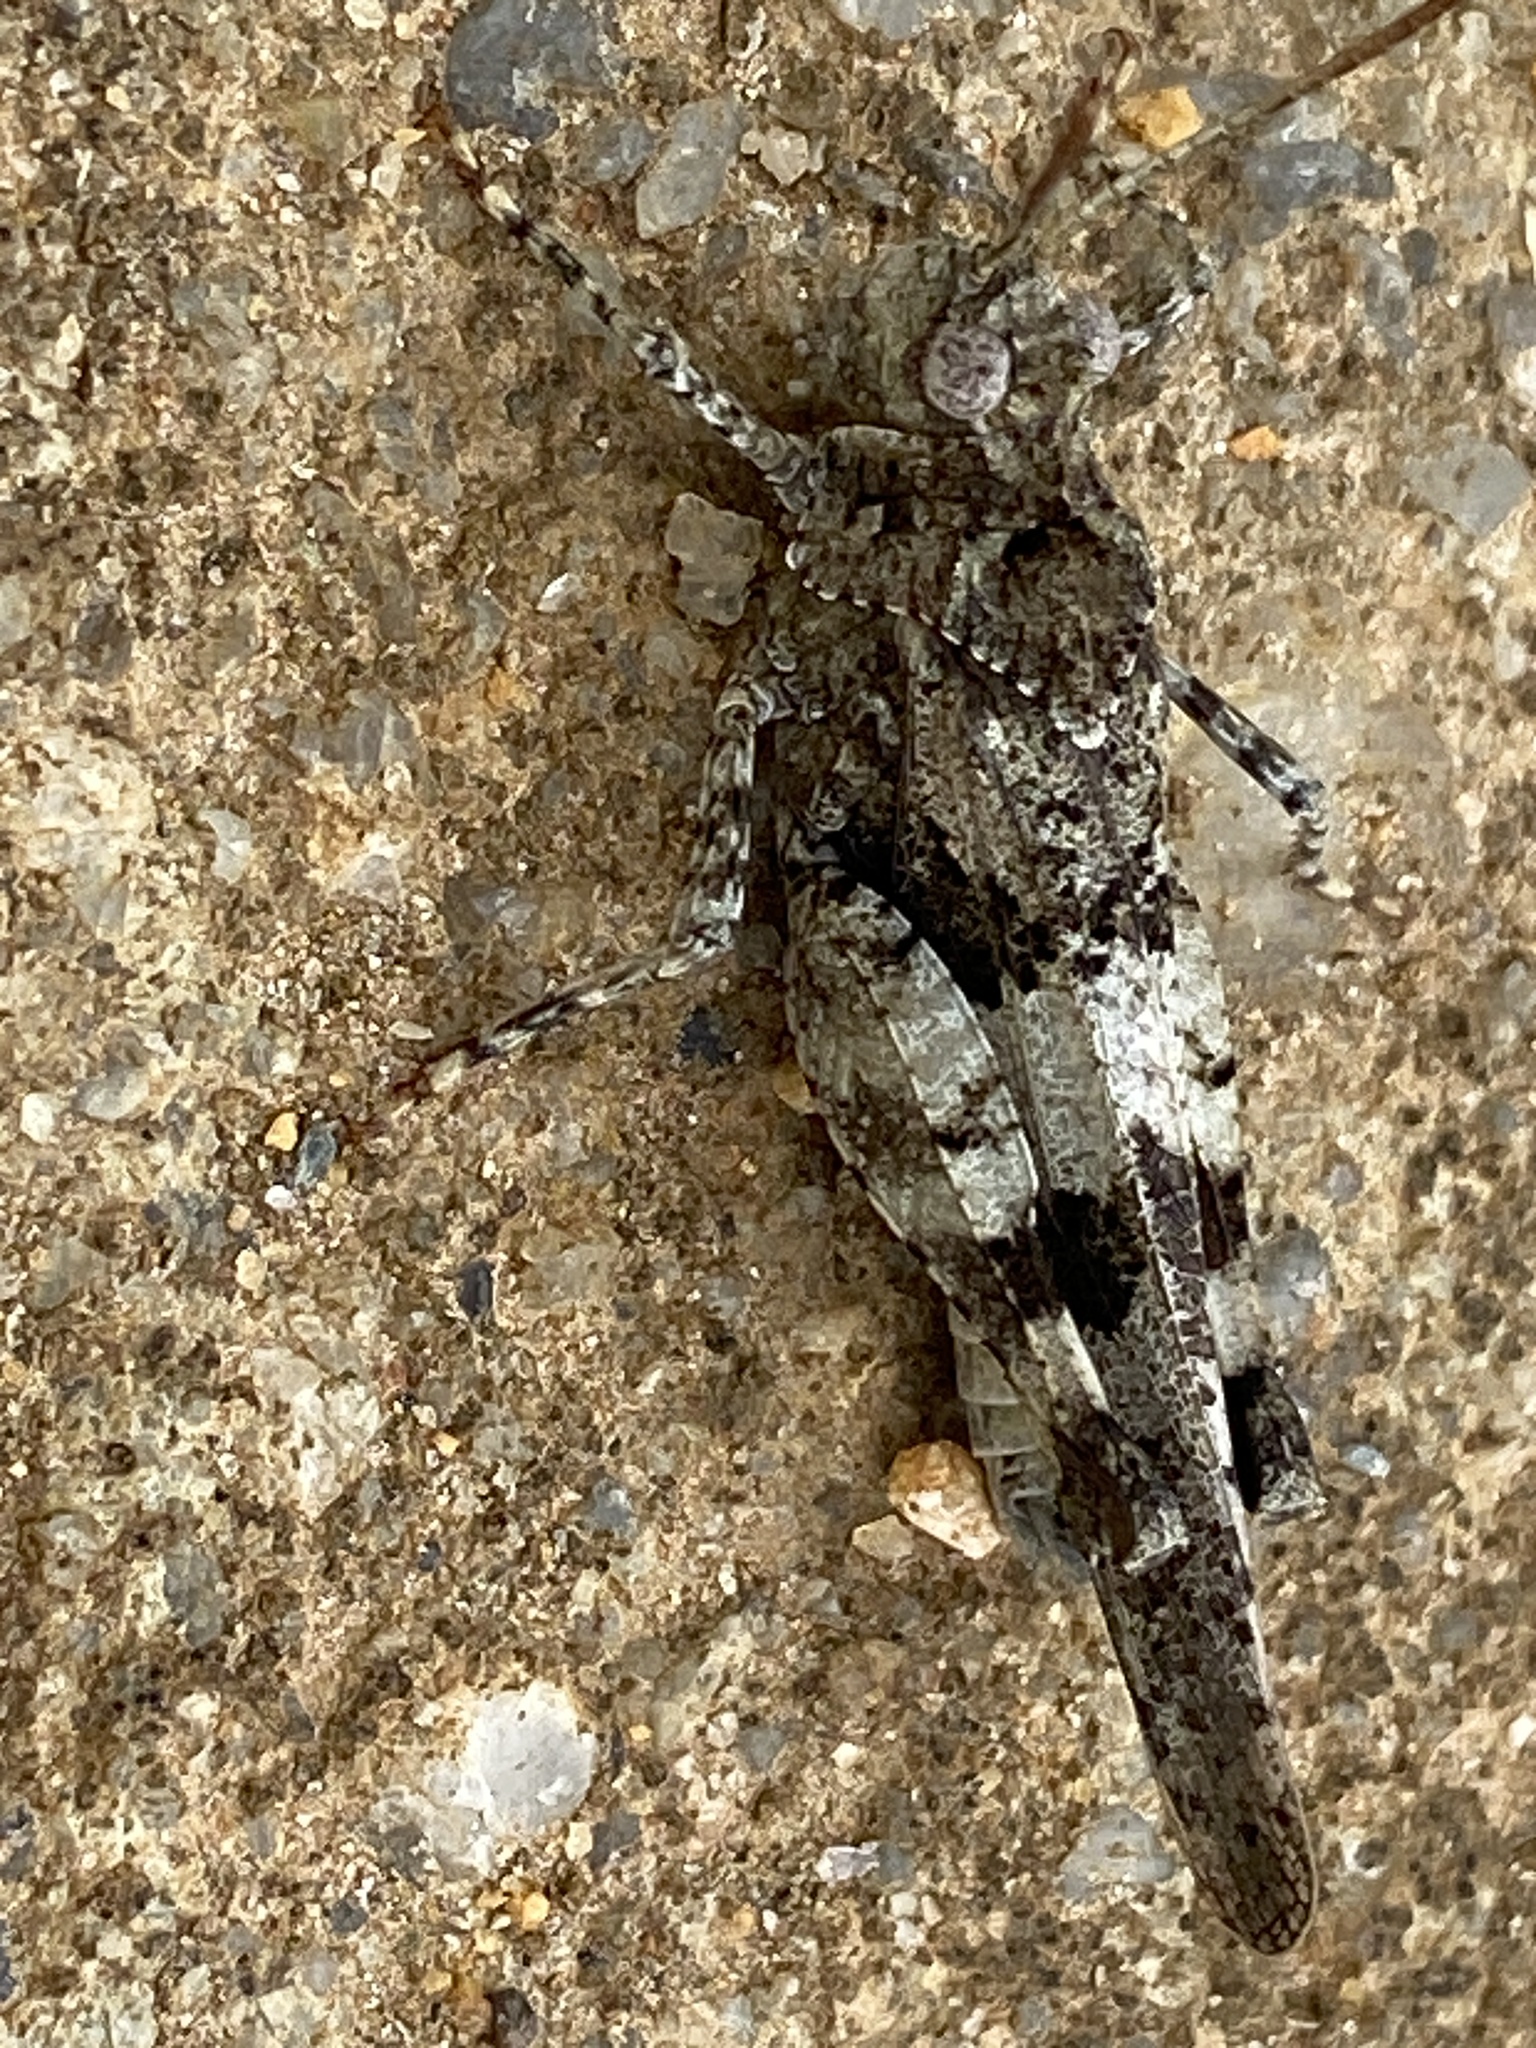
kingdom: Animalia
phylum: Arthropoda
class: Insecta
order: Orthoptera
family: Acrididae
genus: Oedipoda
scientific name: Oedipoda caerulescens
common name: Blue-winged grasshopper
